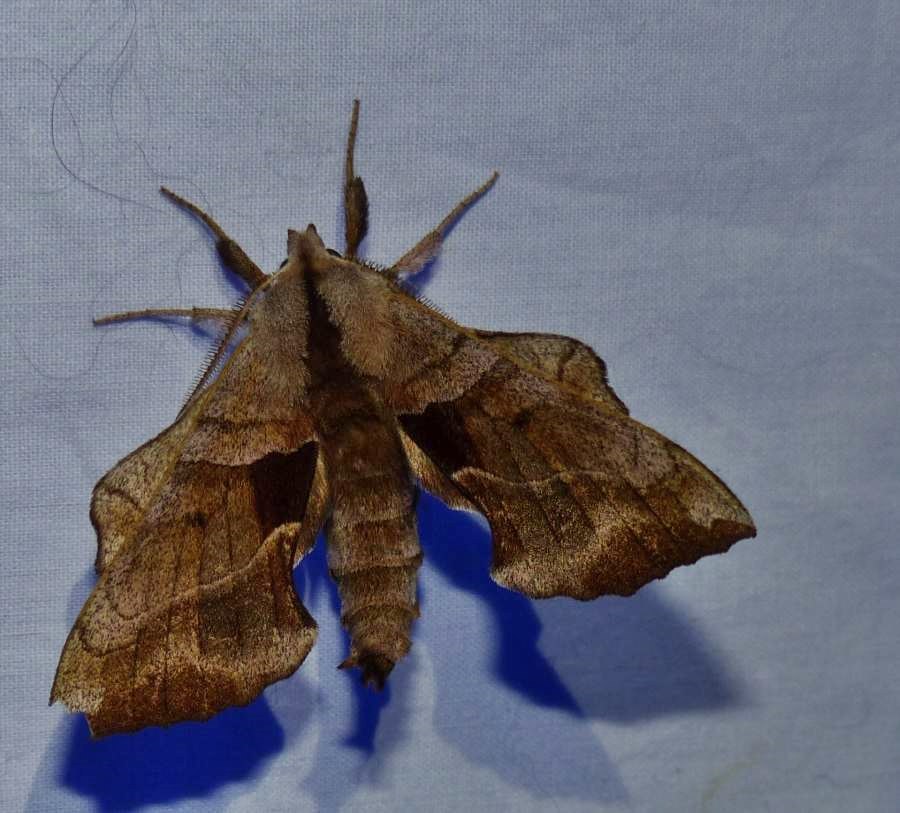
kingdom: Animalia
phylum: Arthropoda
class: Insecta
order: Lepidoptera
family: Sphingidae
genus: Amorpha
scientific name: Amorpha juglandis
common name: Walnut sphinx
